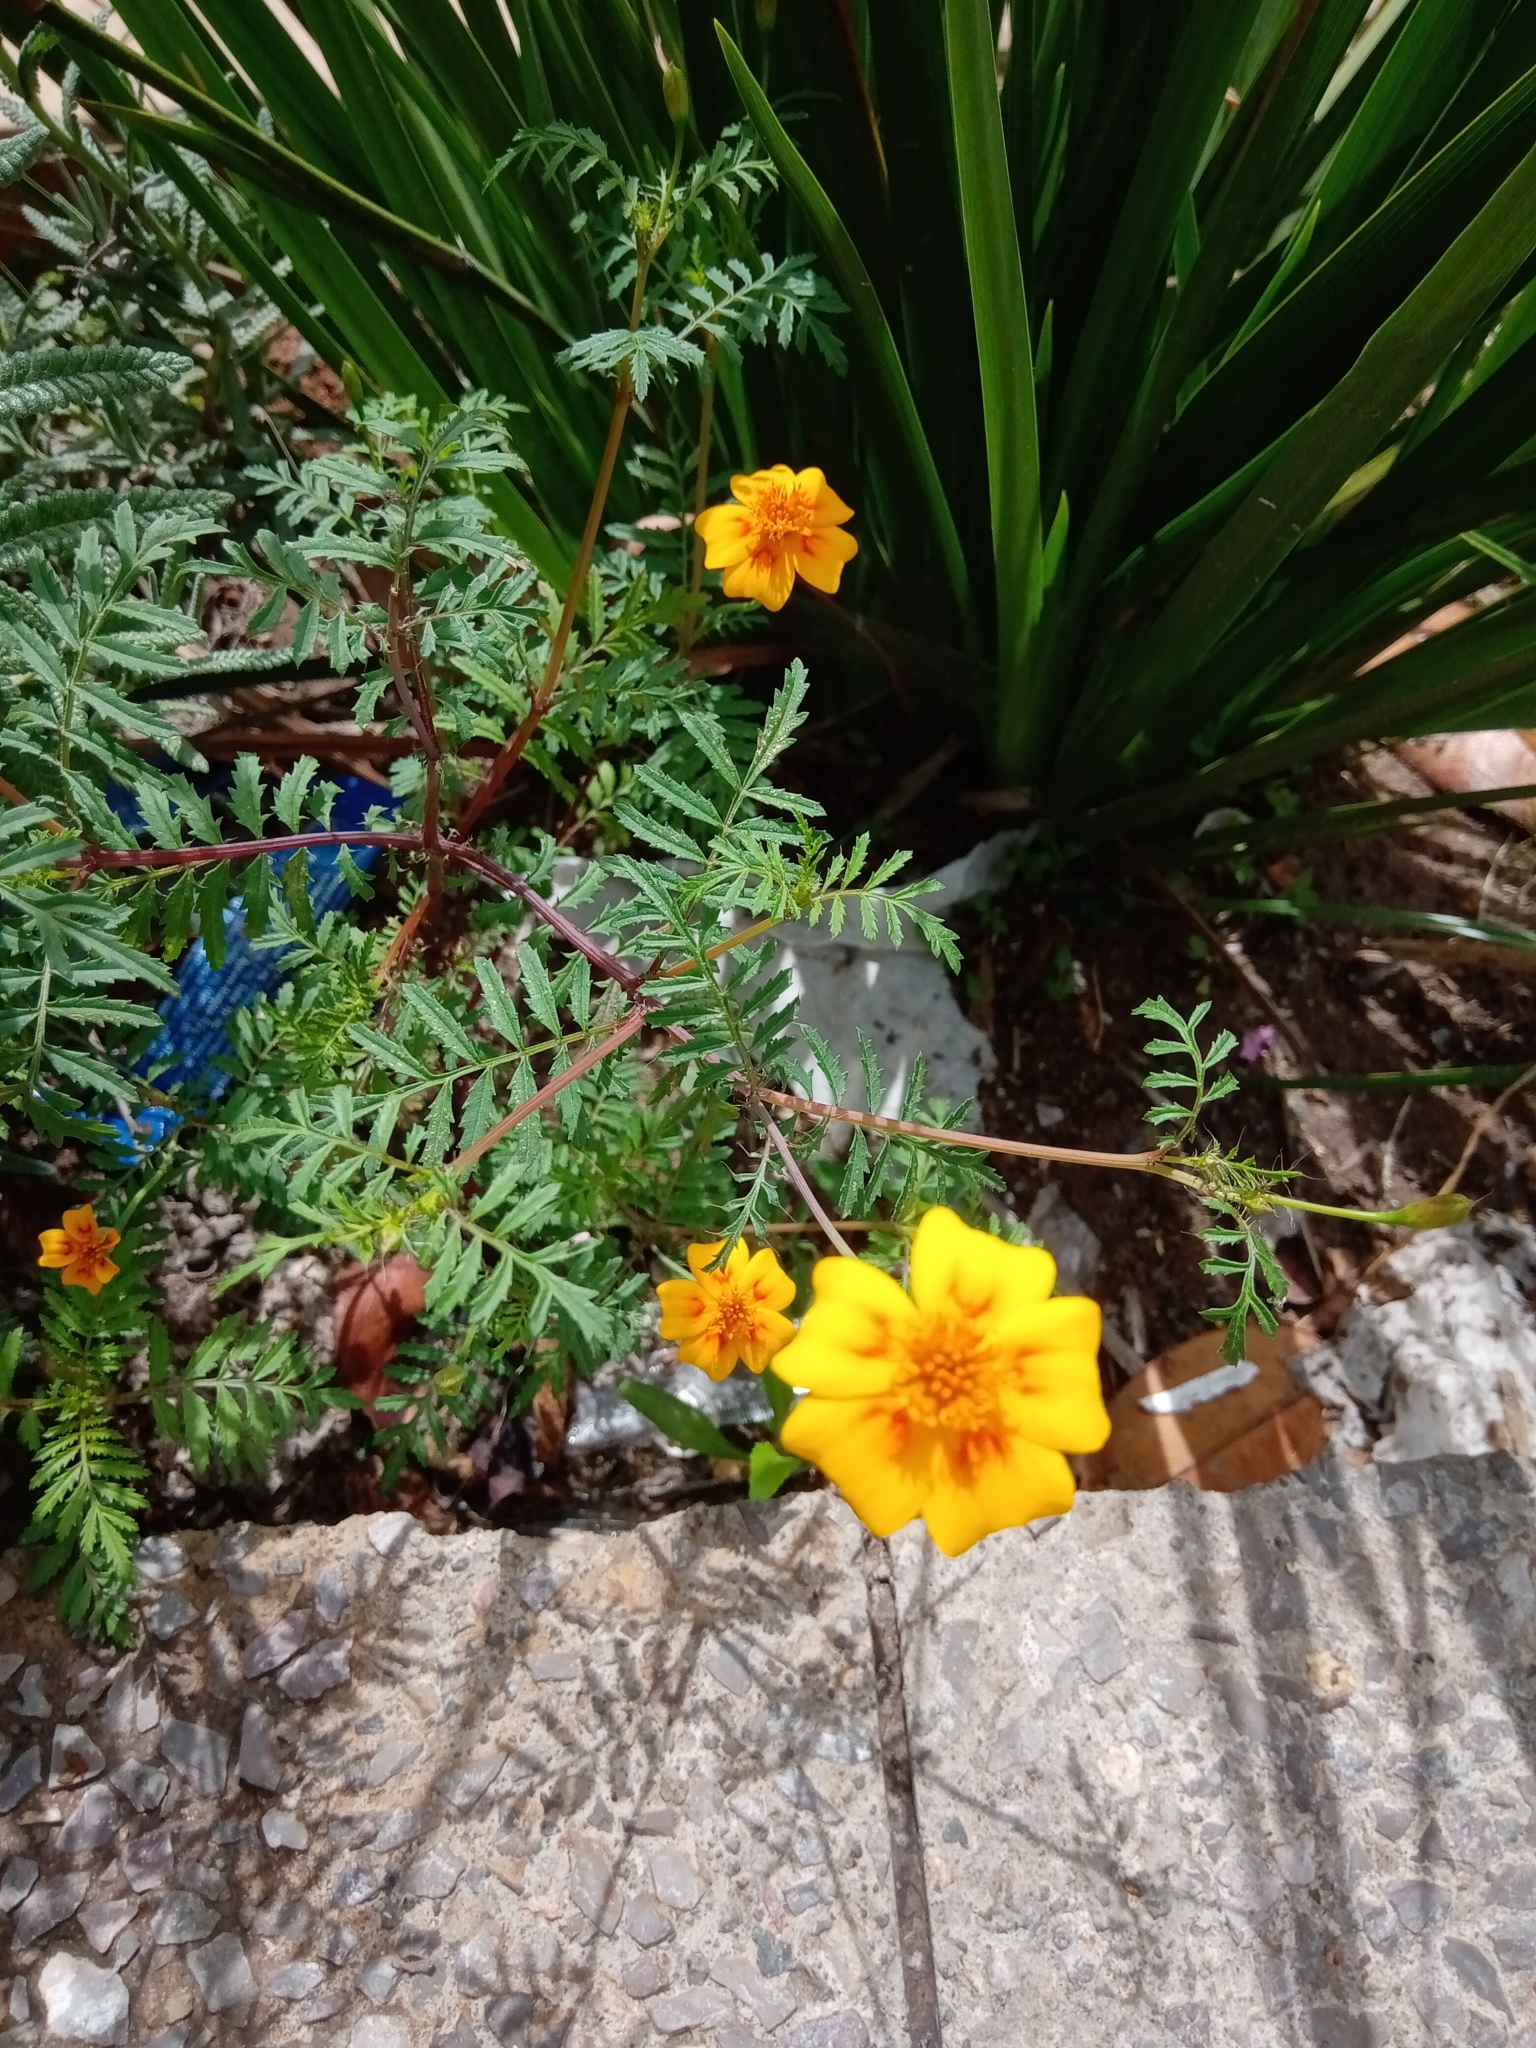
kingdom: Plantae
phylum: Tracheophyta
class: Magnoliopsida
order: Asterales
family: Asteraceae
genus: Tagetes
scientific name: Tagetes lunulata
